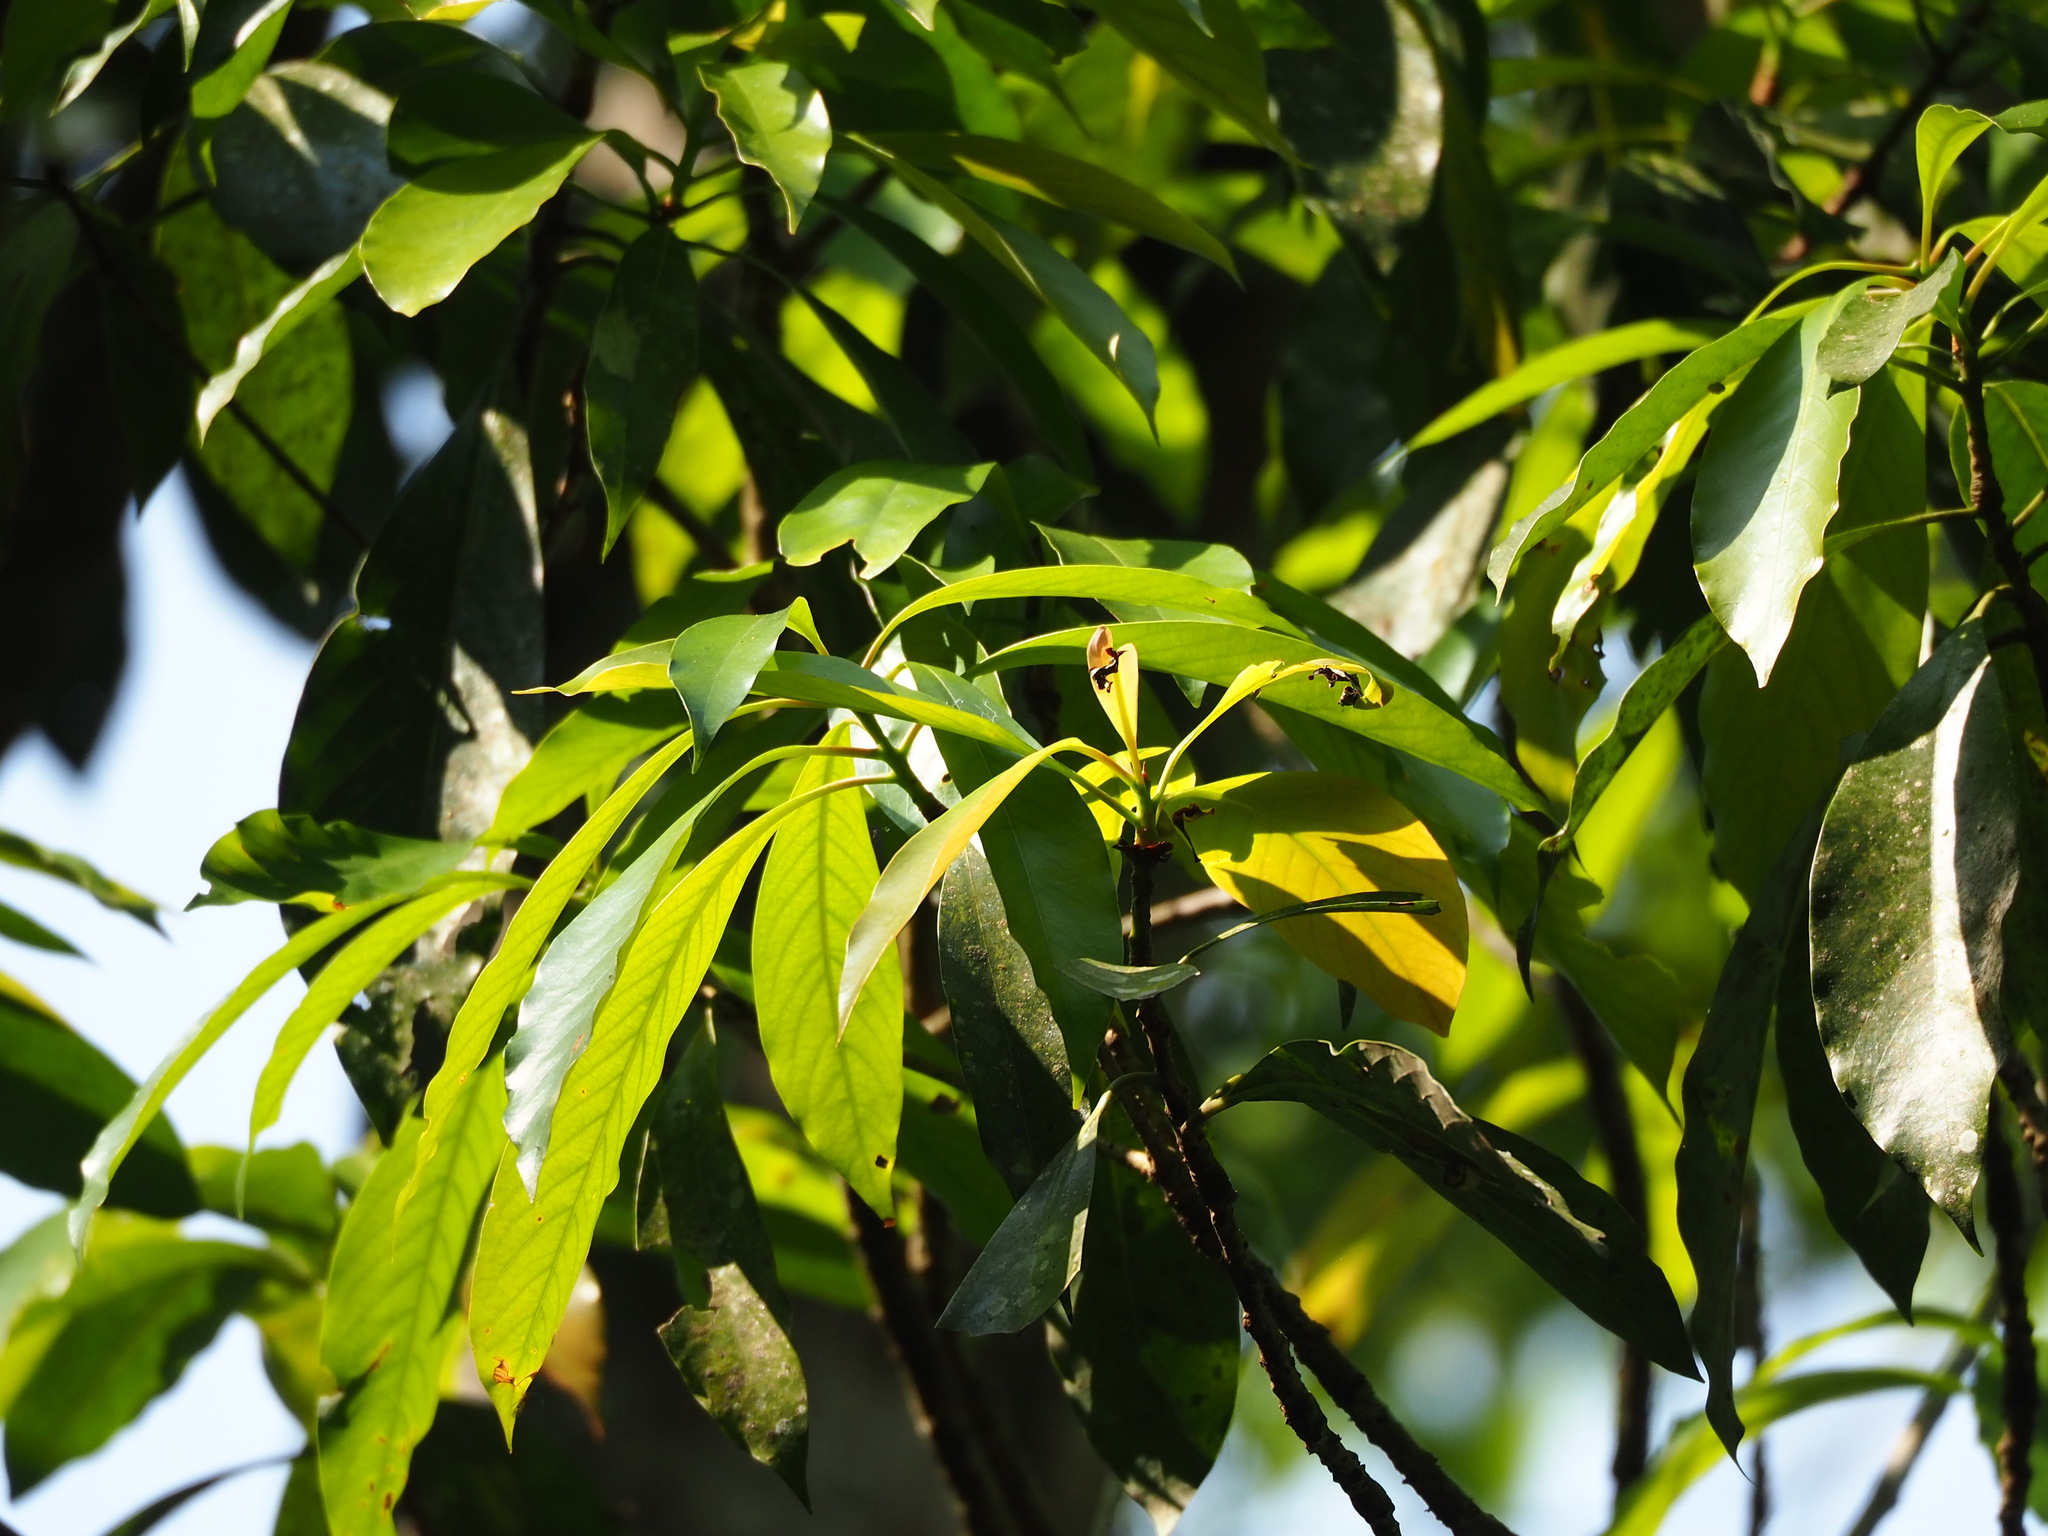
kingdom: Plantae
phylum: Tracheophyta
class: Magnoliopsida
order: Laurales
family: Lauraceae
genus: Machilus
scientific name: Machilus japonica
